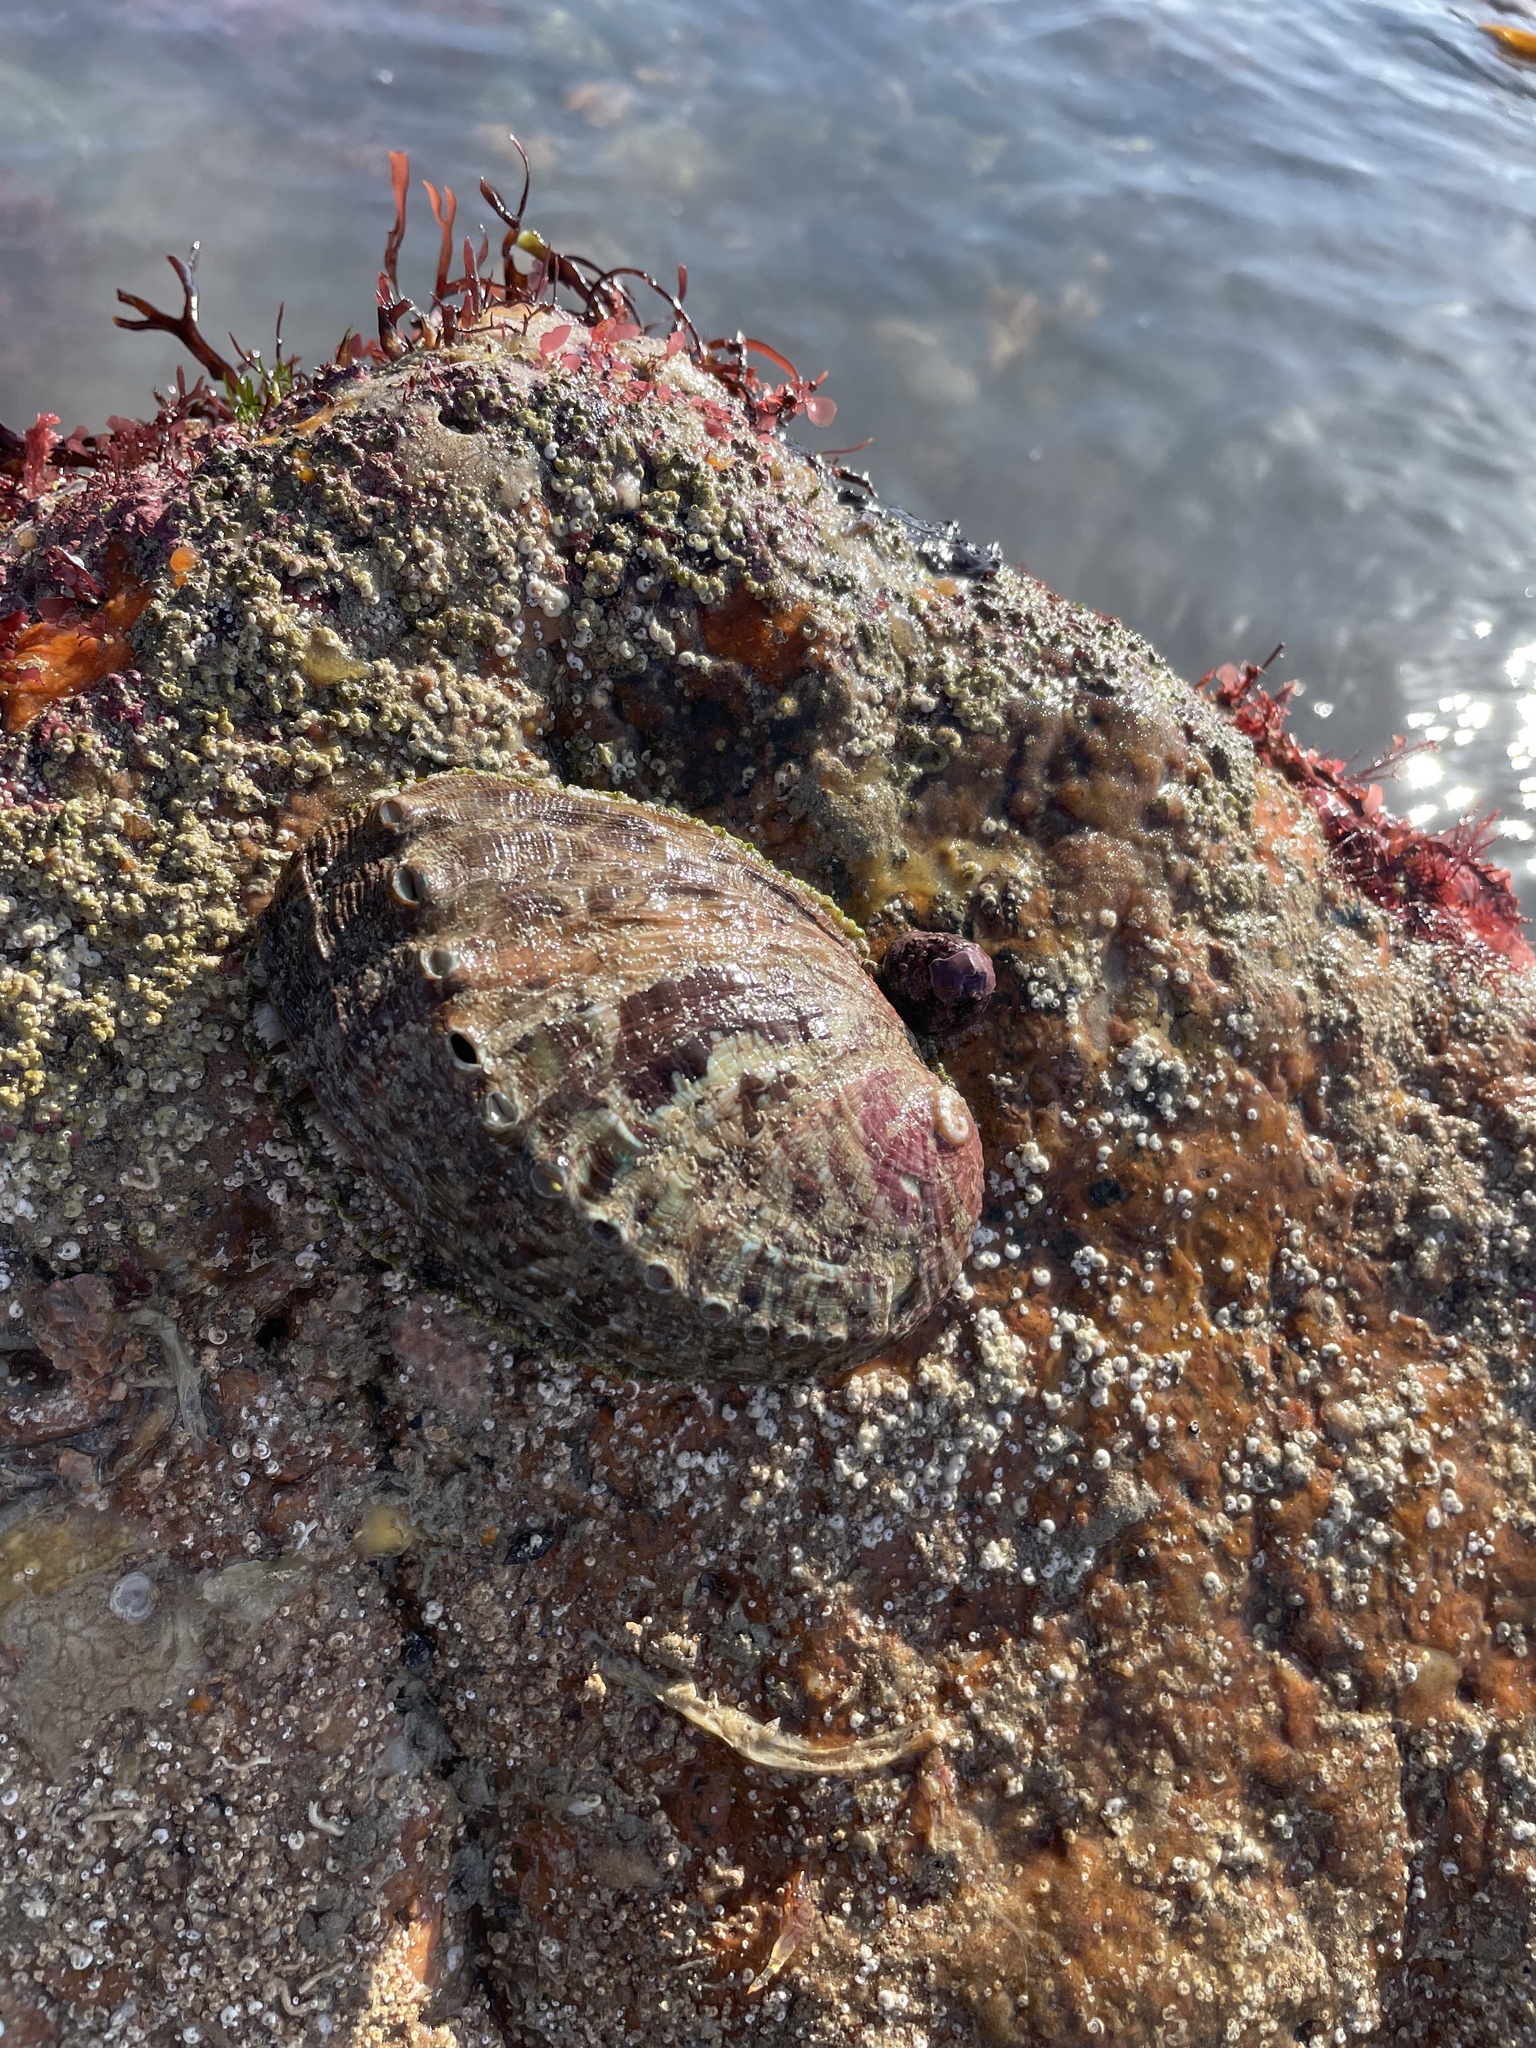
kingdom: Animalia
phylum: Mollusca
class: Gastropoda
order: Lepetellida
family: Haliotidae
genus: Haliotis
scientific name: Haliotis tuberculata
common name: Green ormer
